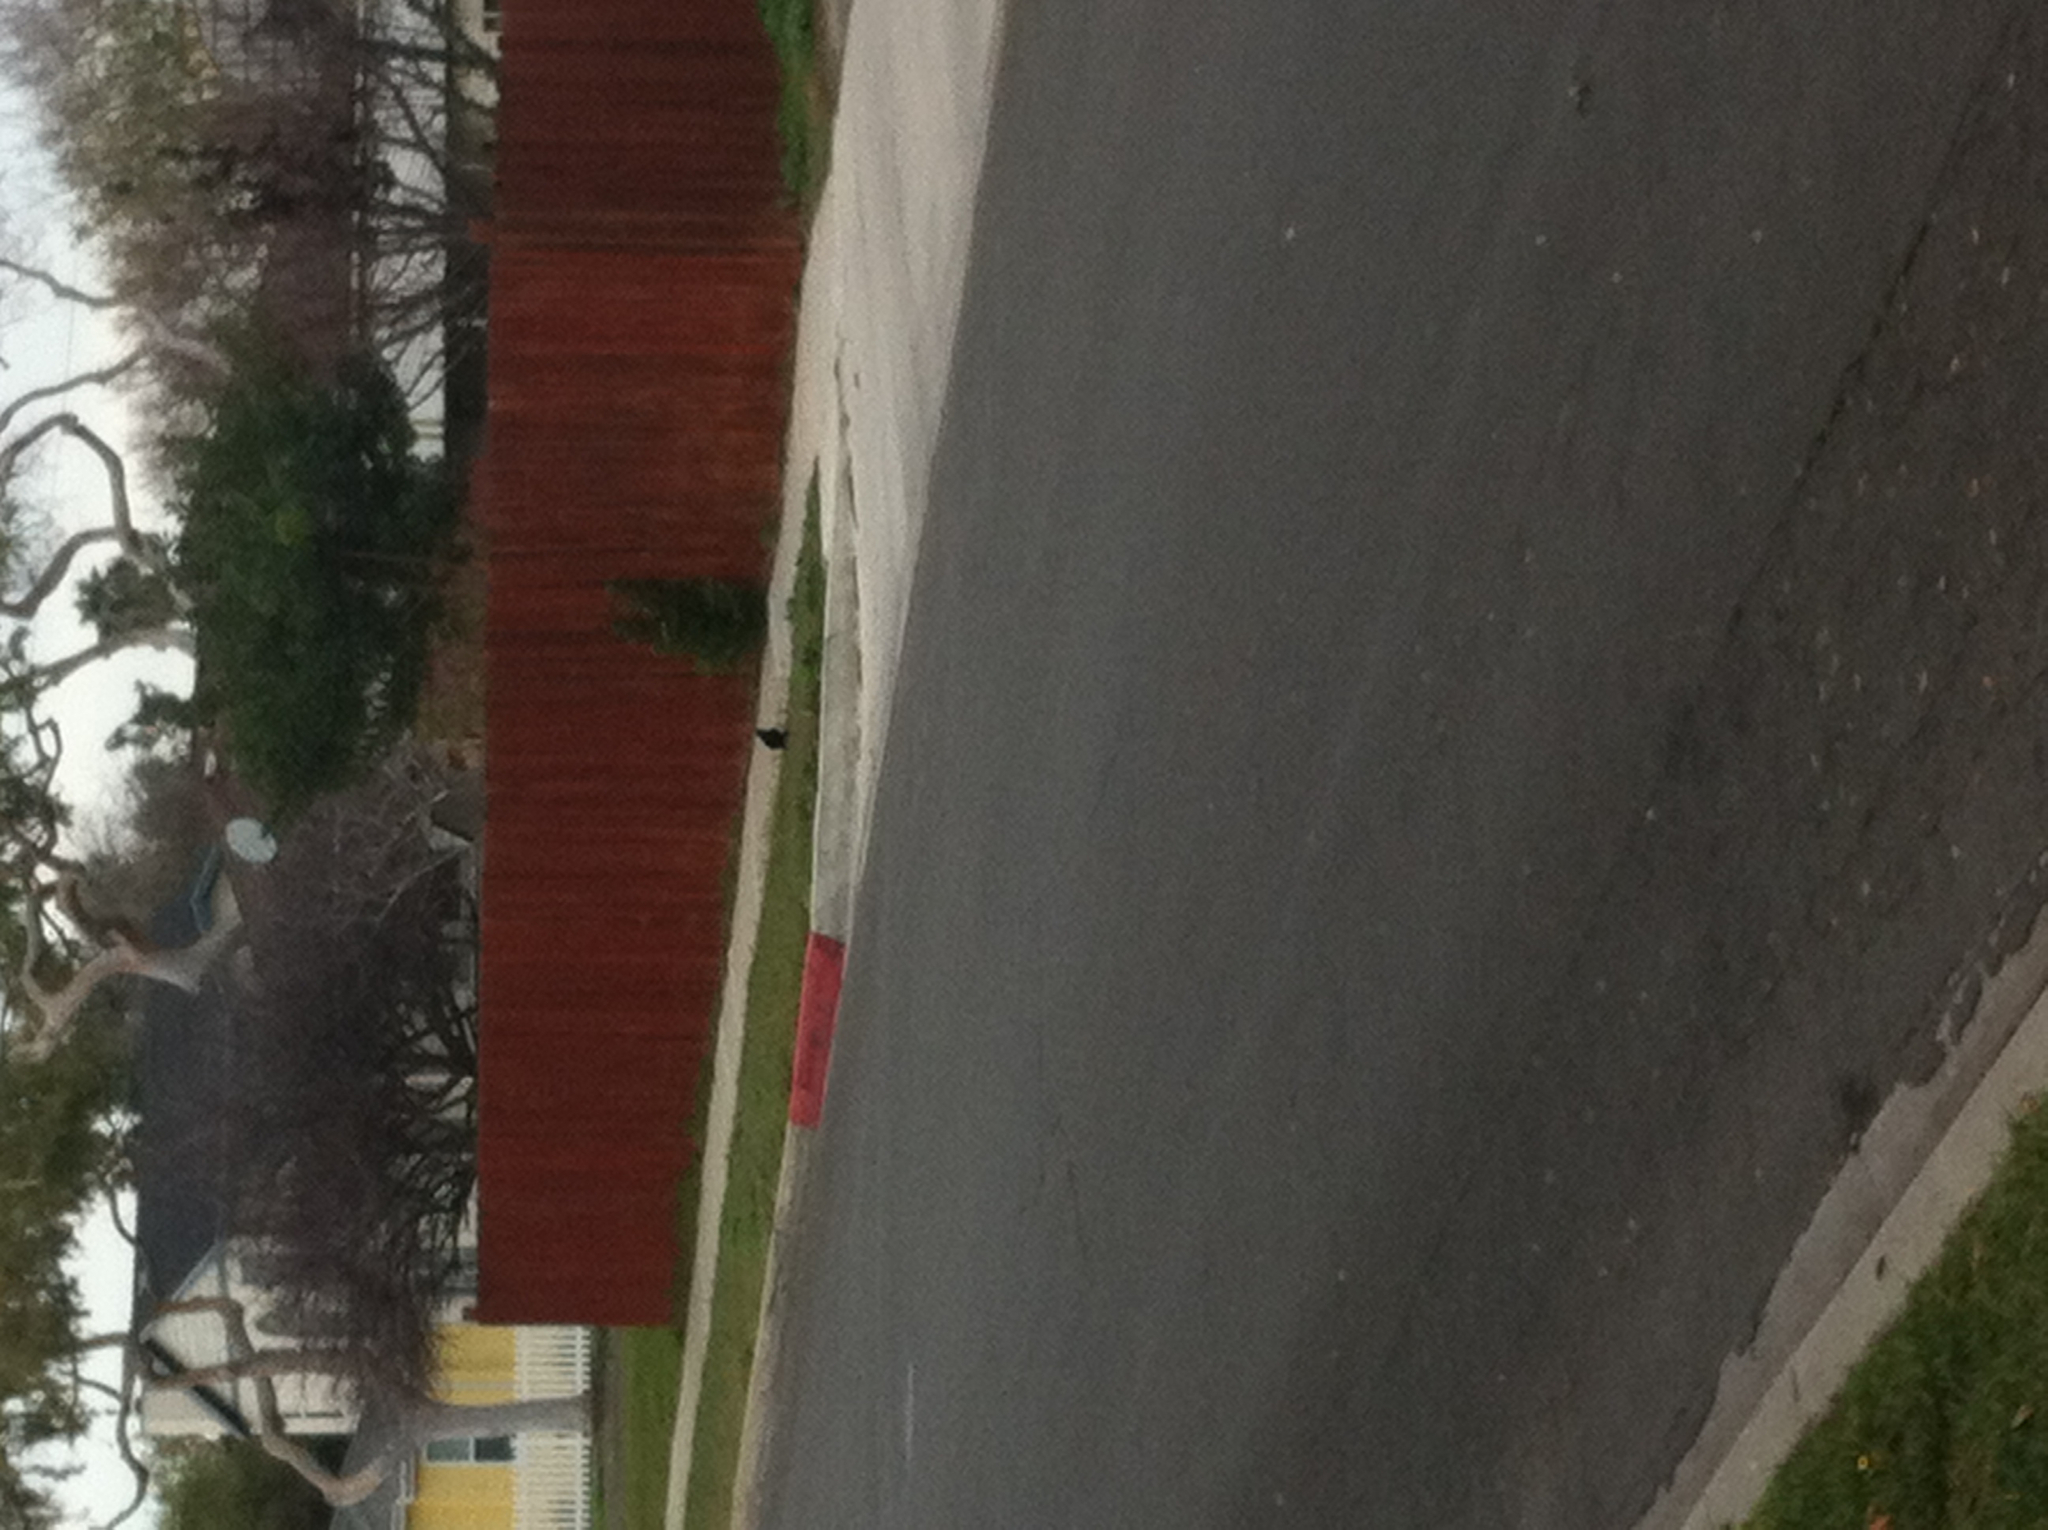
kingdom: Animalia
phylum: Chordata
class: Aves
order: Passeriformes
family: Corvidae
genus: Corvus
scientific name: Corvus corax
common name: Common raven
